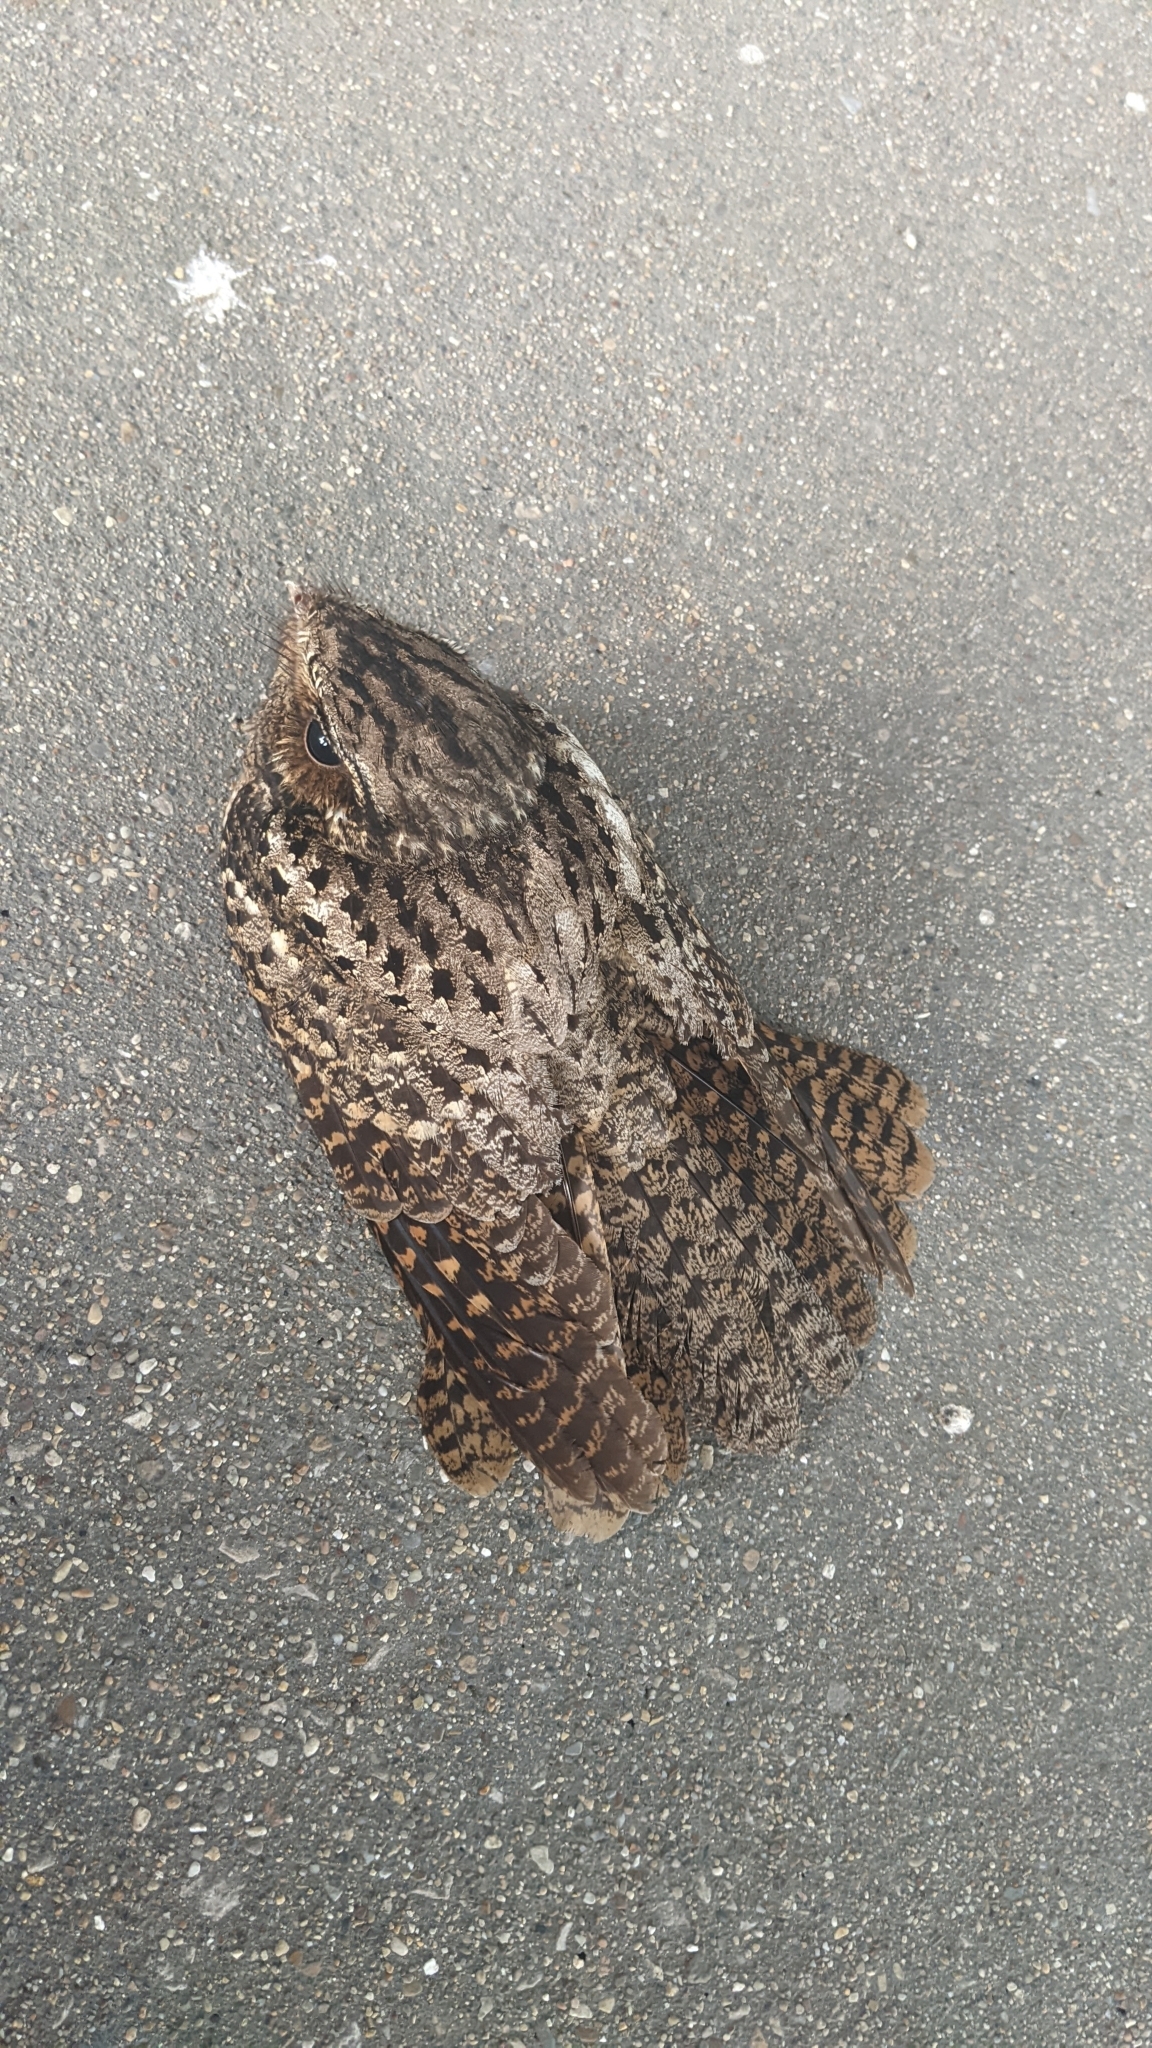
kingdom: Animalia
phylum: Chordata
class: Aves
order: Caprimulgiformes
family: Caprimulgidae
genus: Antrostomus
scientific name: Antrostomus carolinensis
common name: Chuck-will's-widow
